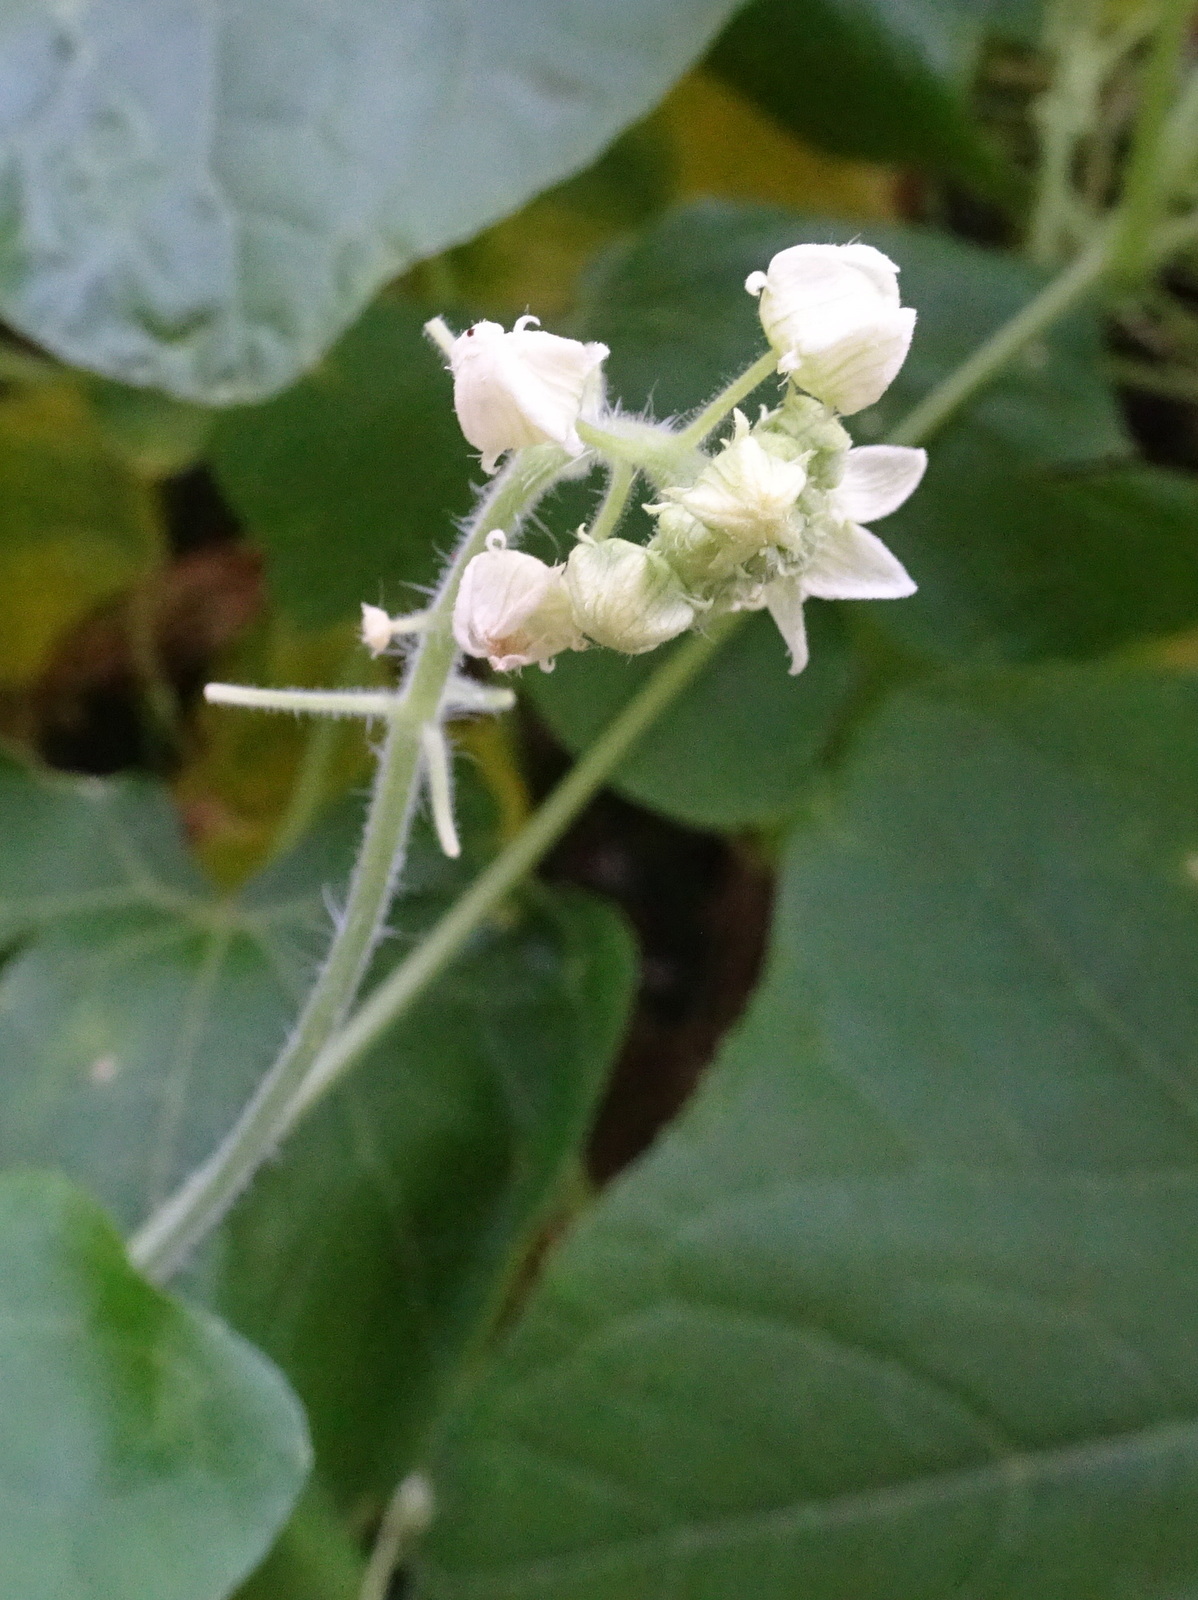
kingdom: Plantae
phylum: Tracheophyta
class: Magnoliopsida
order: Cucurbitales
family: Cucurbitaceae
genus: Sicyos
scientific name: Sicyos angulatus
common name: Angled burr cucumber
